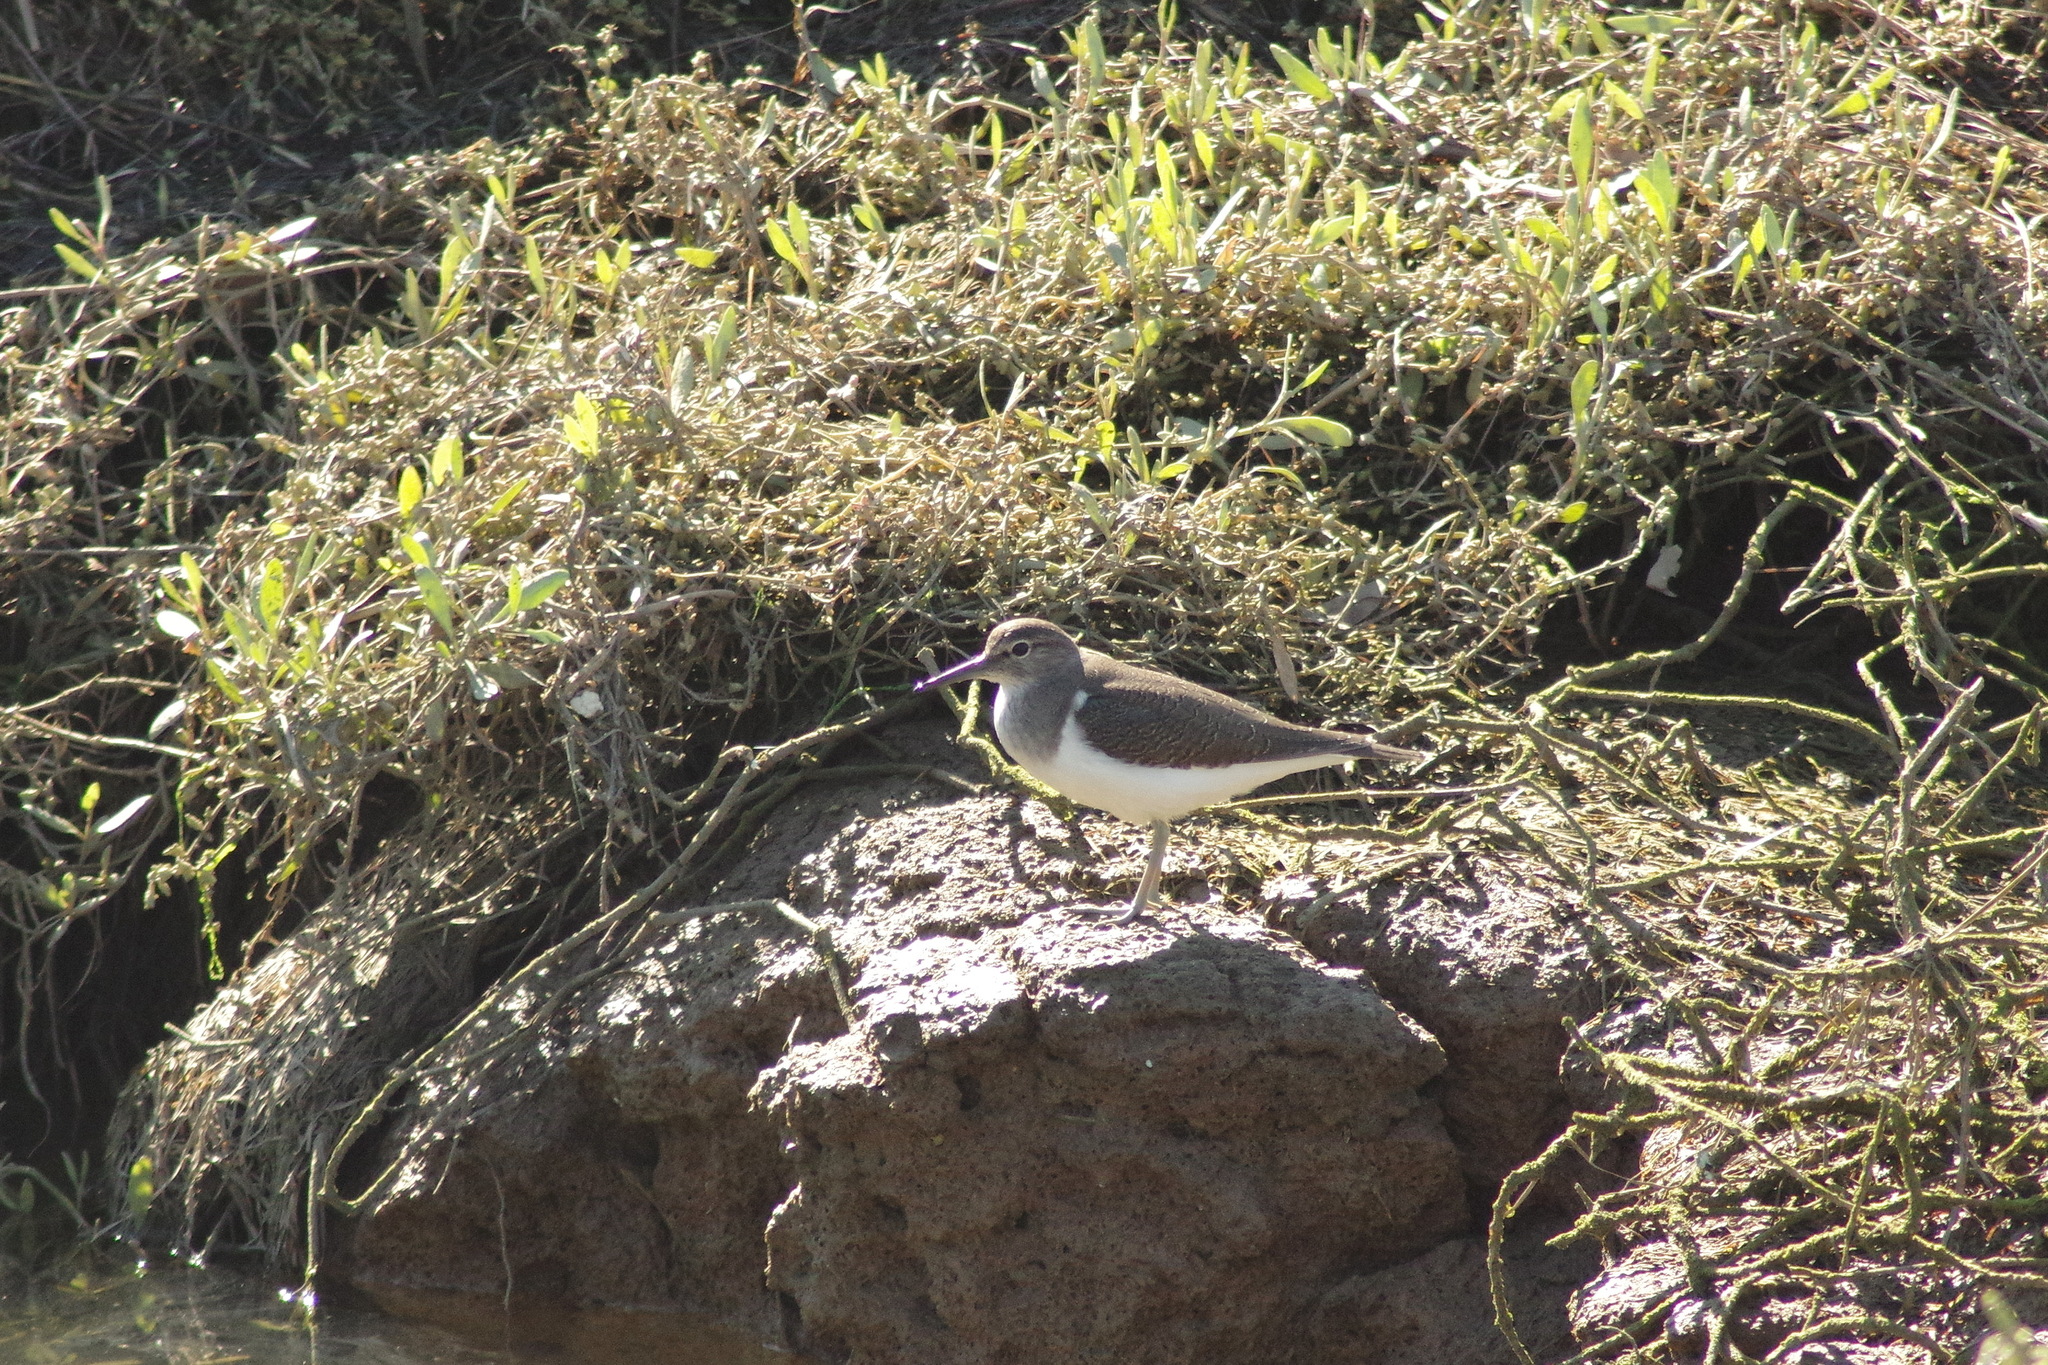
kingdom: Animalia
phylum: Chordata
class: Aves
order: Charadriiformes
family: Scolopacidae
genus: Actitis
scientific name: Actitis hypoleucos
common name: Common sandpiper
